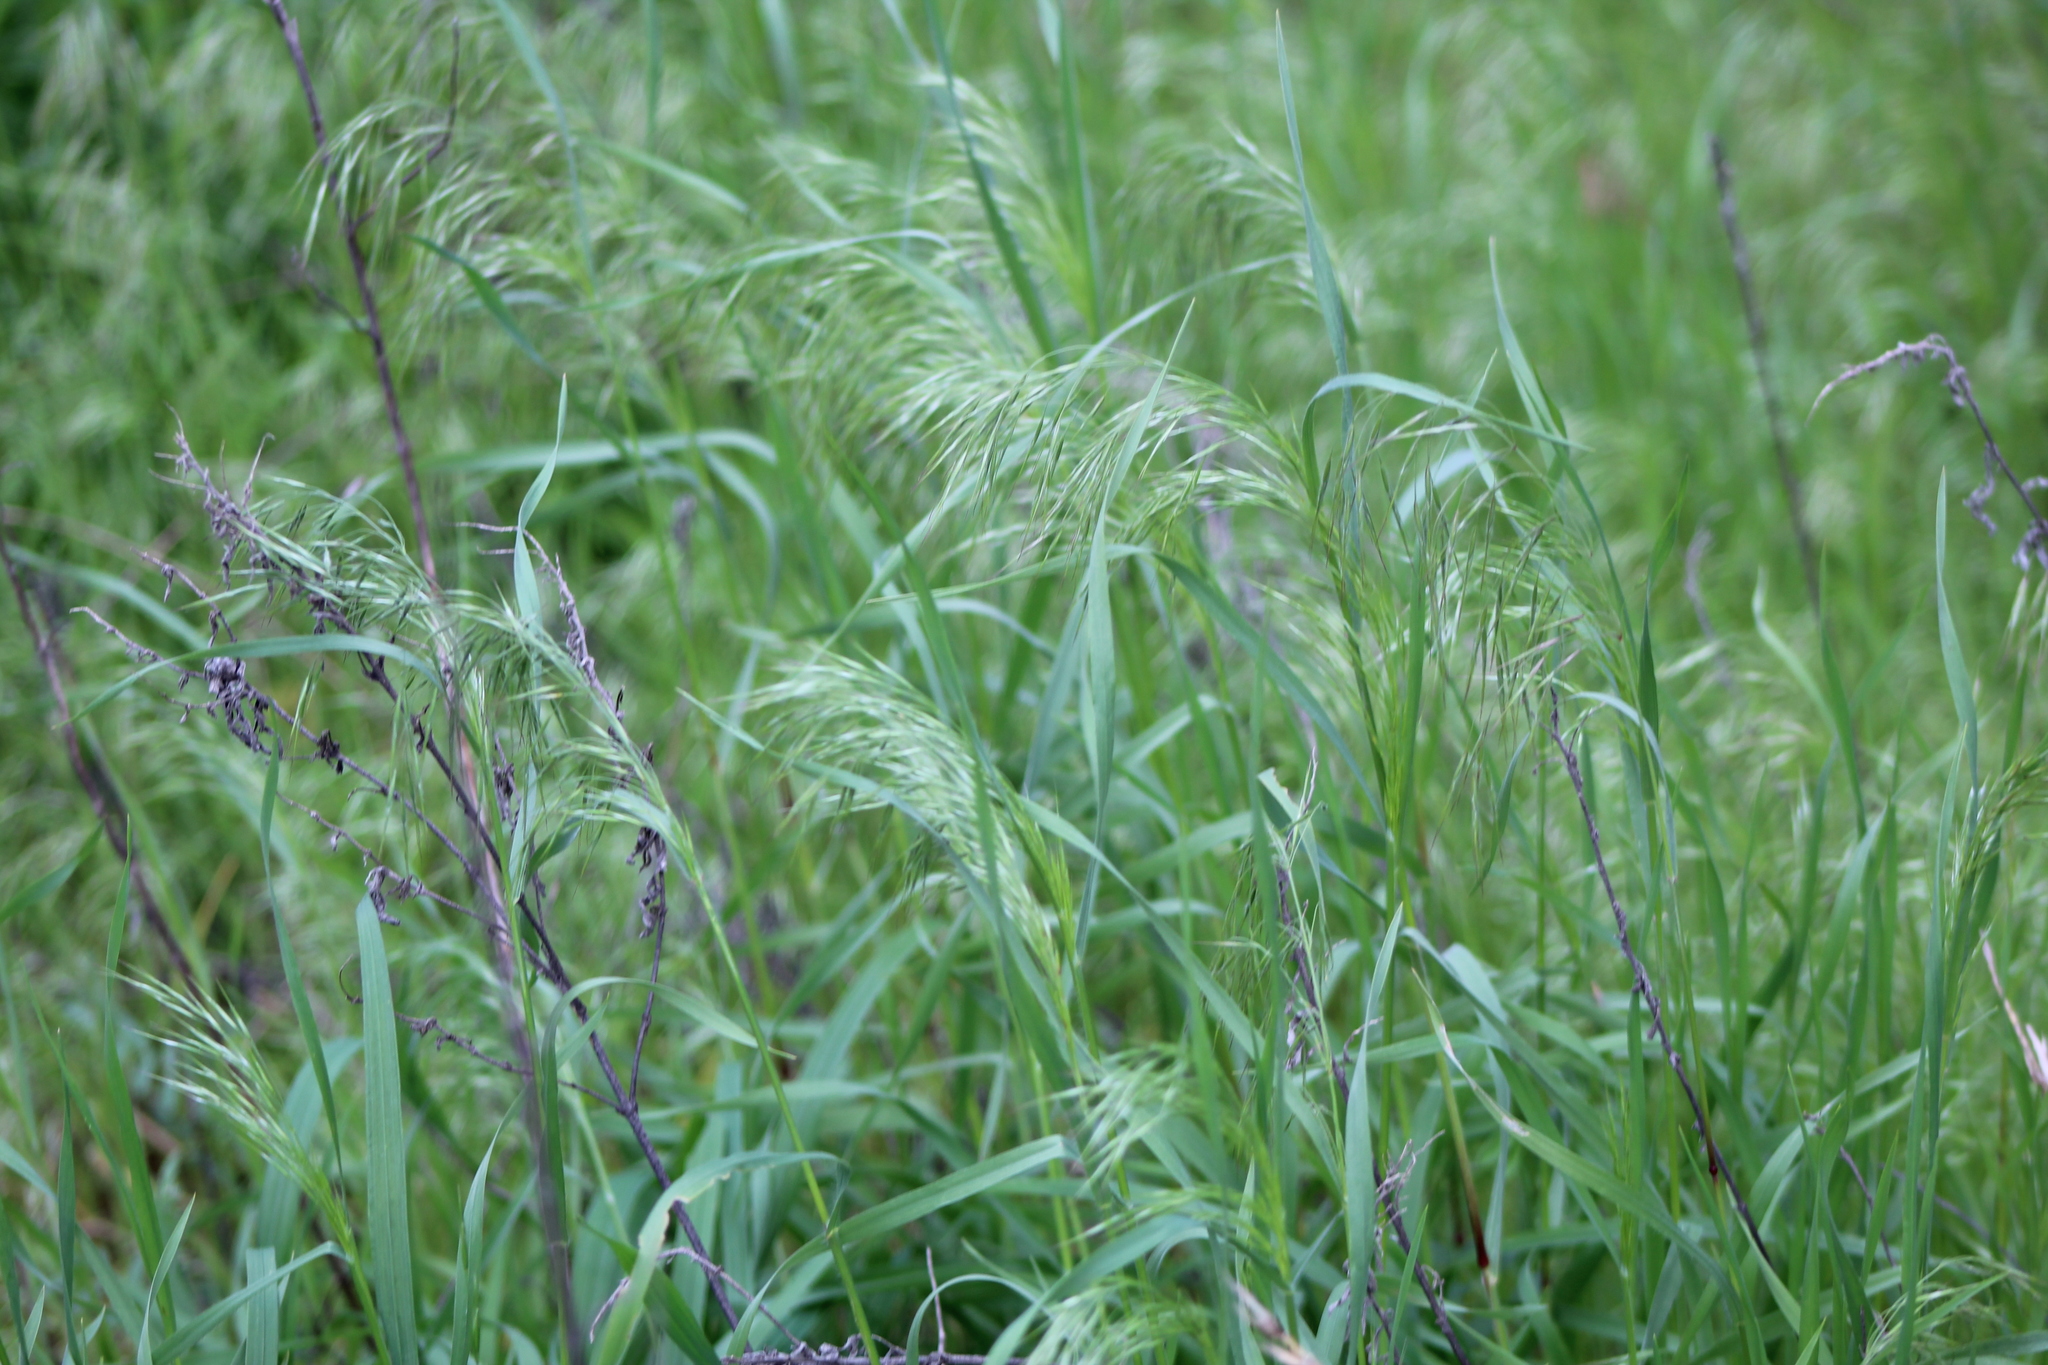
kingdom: Plantae
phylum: Tracheophyta
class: Liliopsida
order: Poales
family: Poaceae
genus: Bromus
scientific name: Bromus tectorum
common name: Cheatgrass
